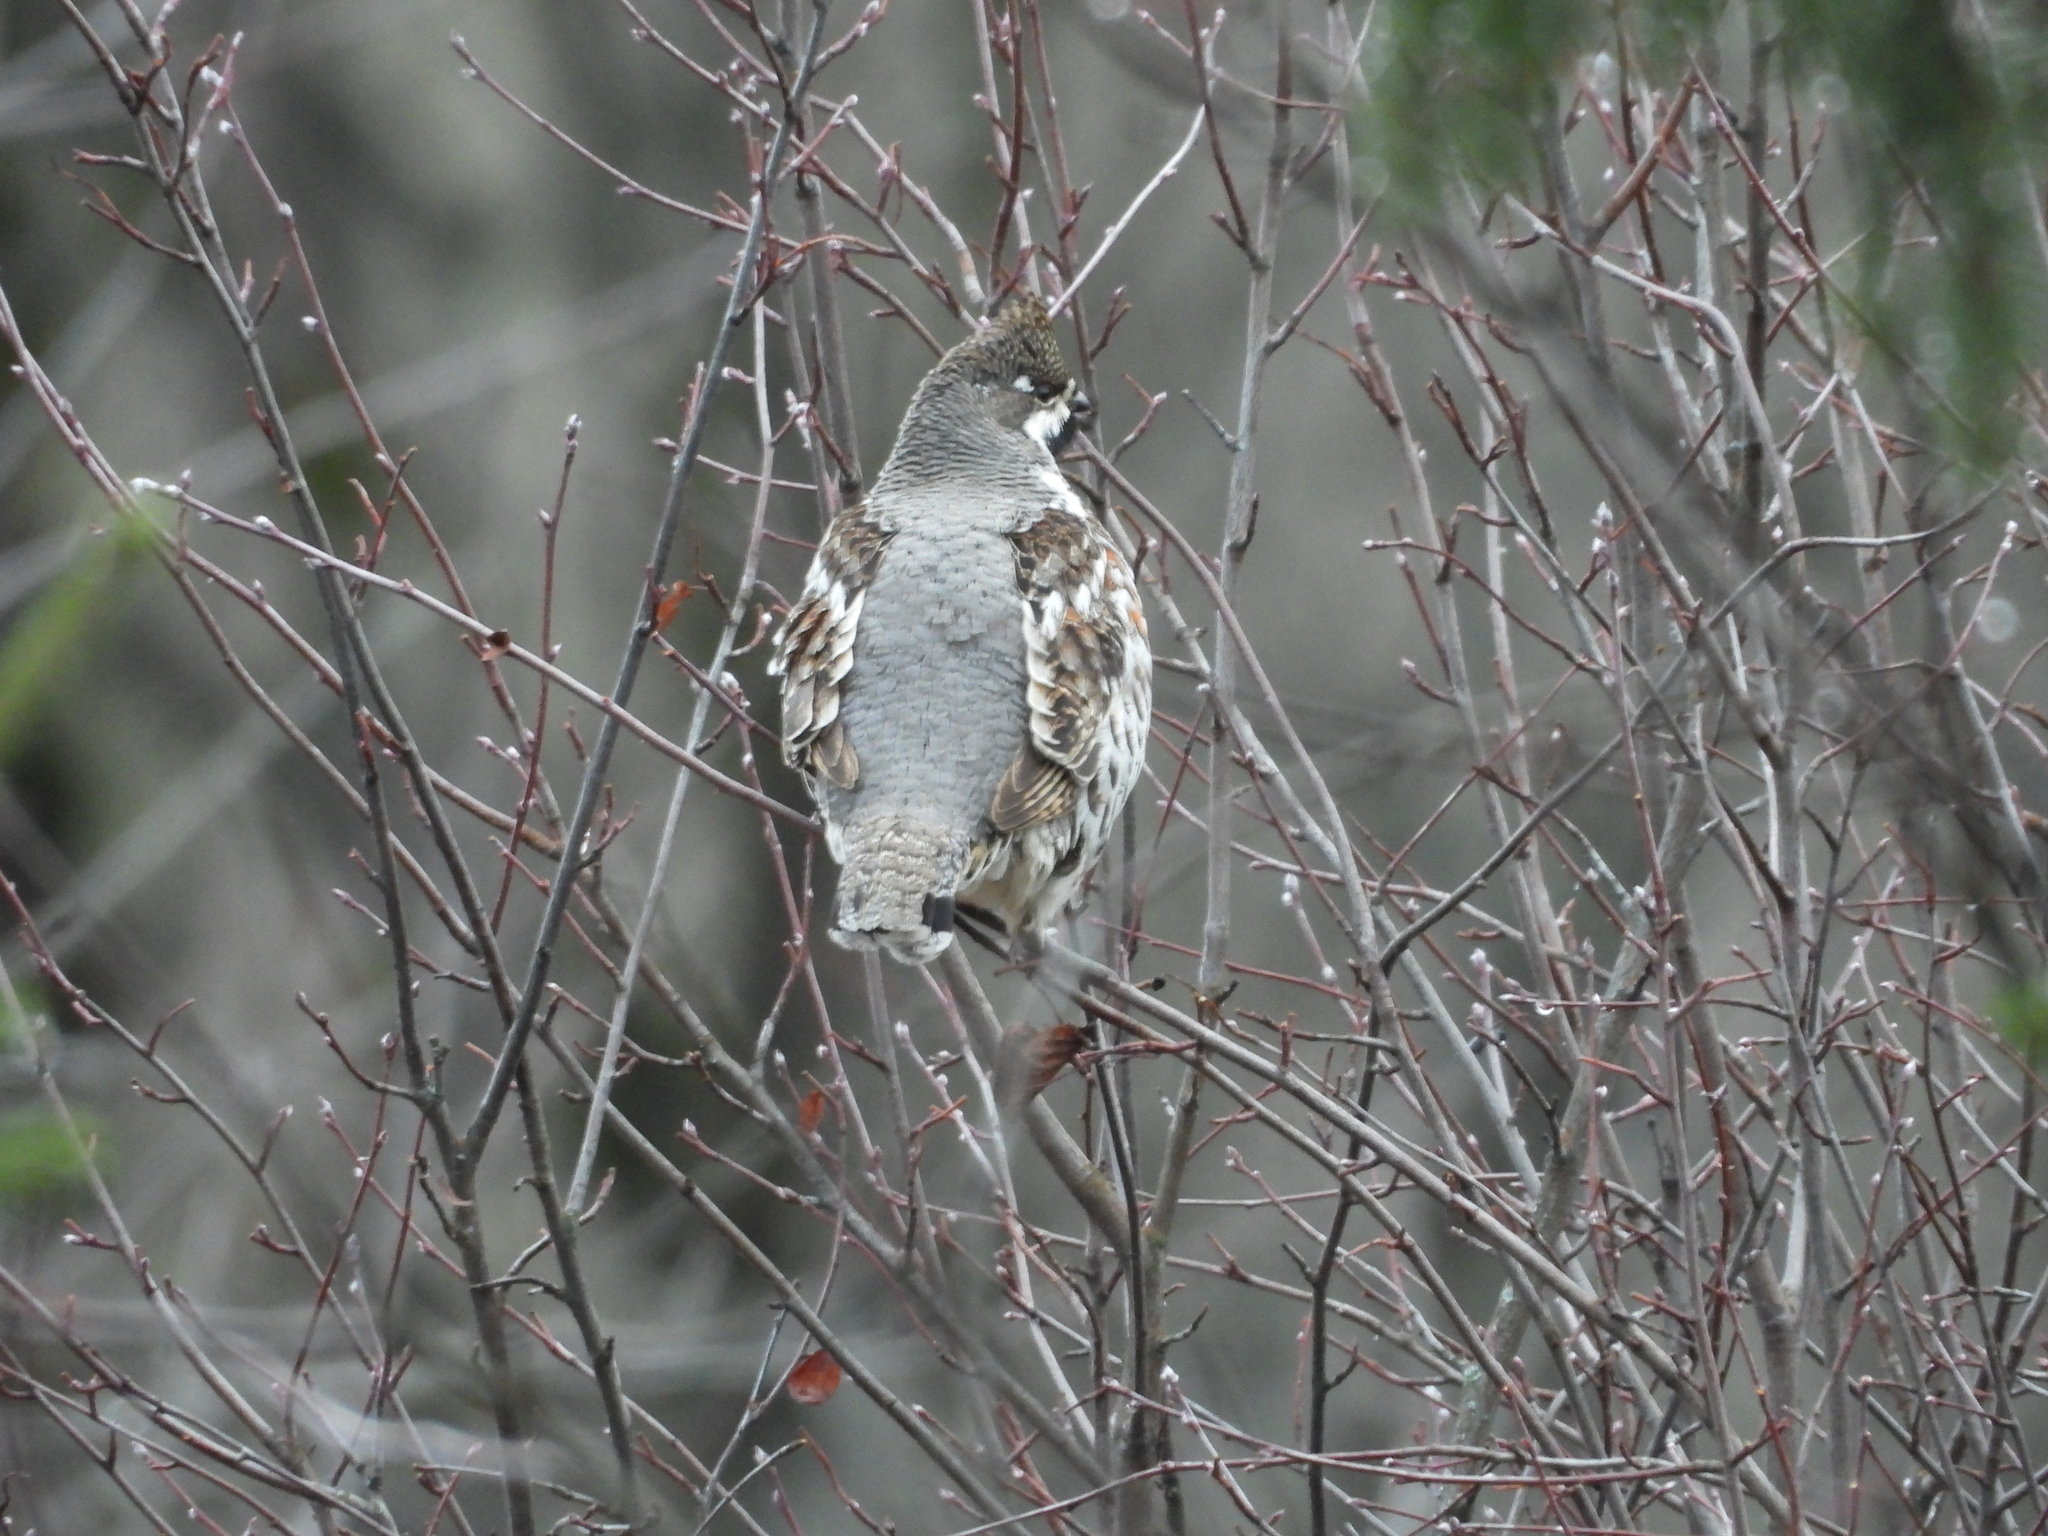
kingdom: Animalia
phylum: Chordata
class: Aves
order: Galliformes
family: Phasianidae
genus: Tetrastes
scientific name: Tetrastes bonasia
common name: Hazel grouse
